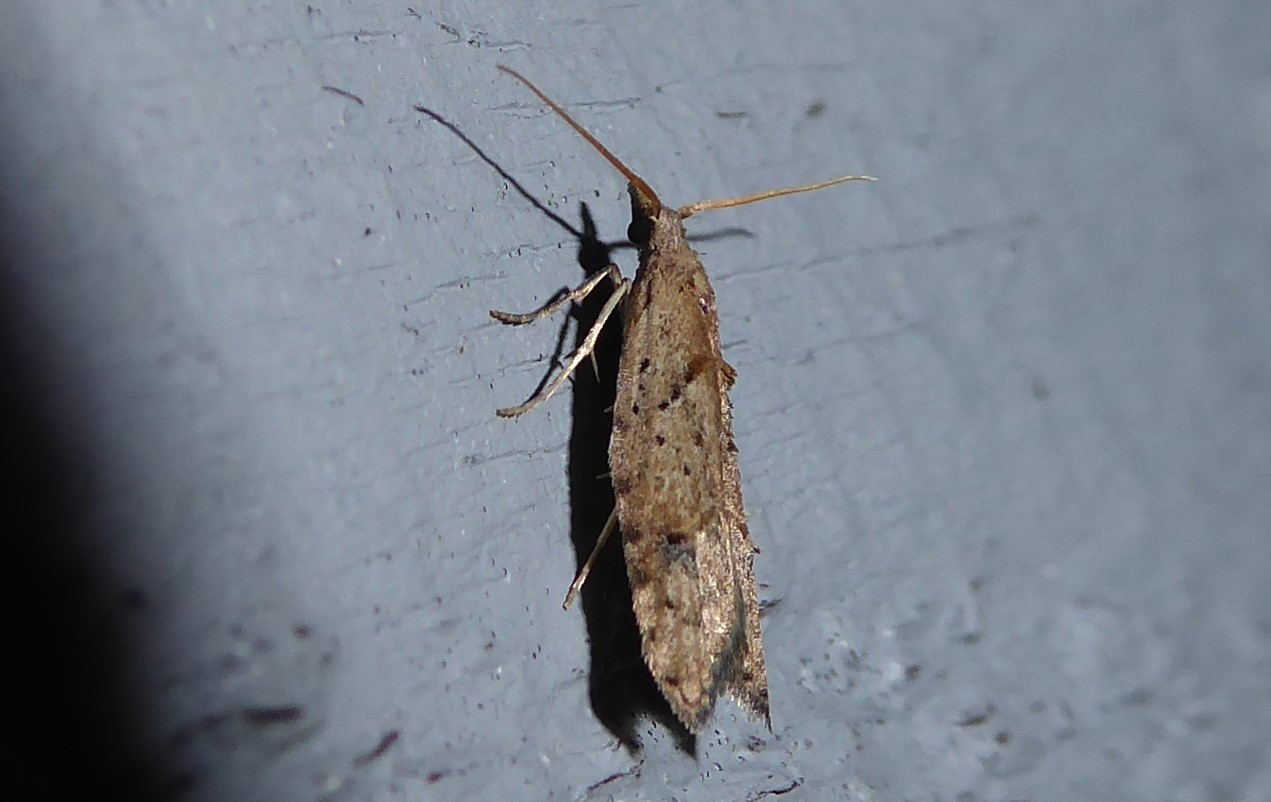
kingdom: Animalia
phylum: Arthropoda
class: Insecta
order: Lepidoptera
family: Carposinidae
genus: Carposina
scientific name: Carposina rubophaga
